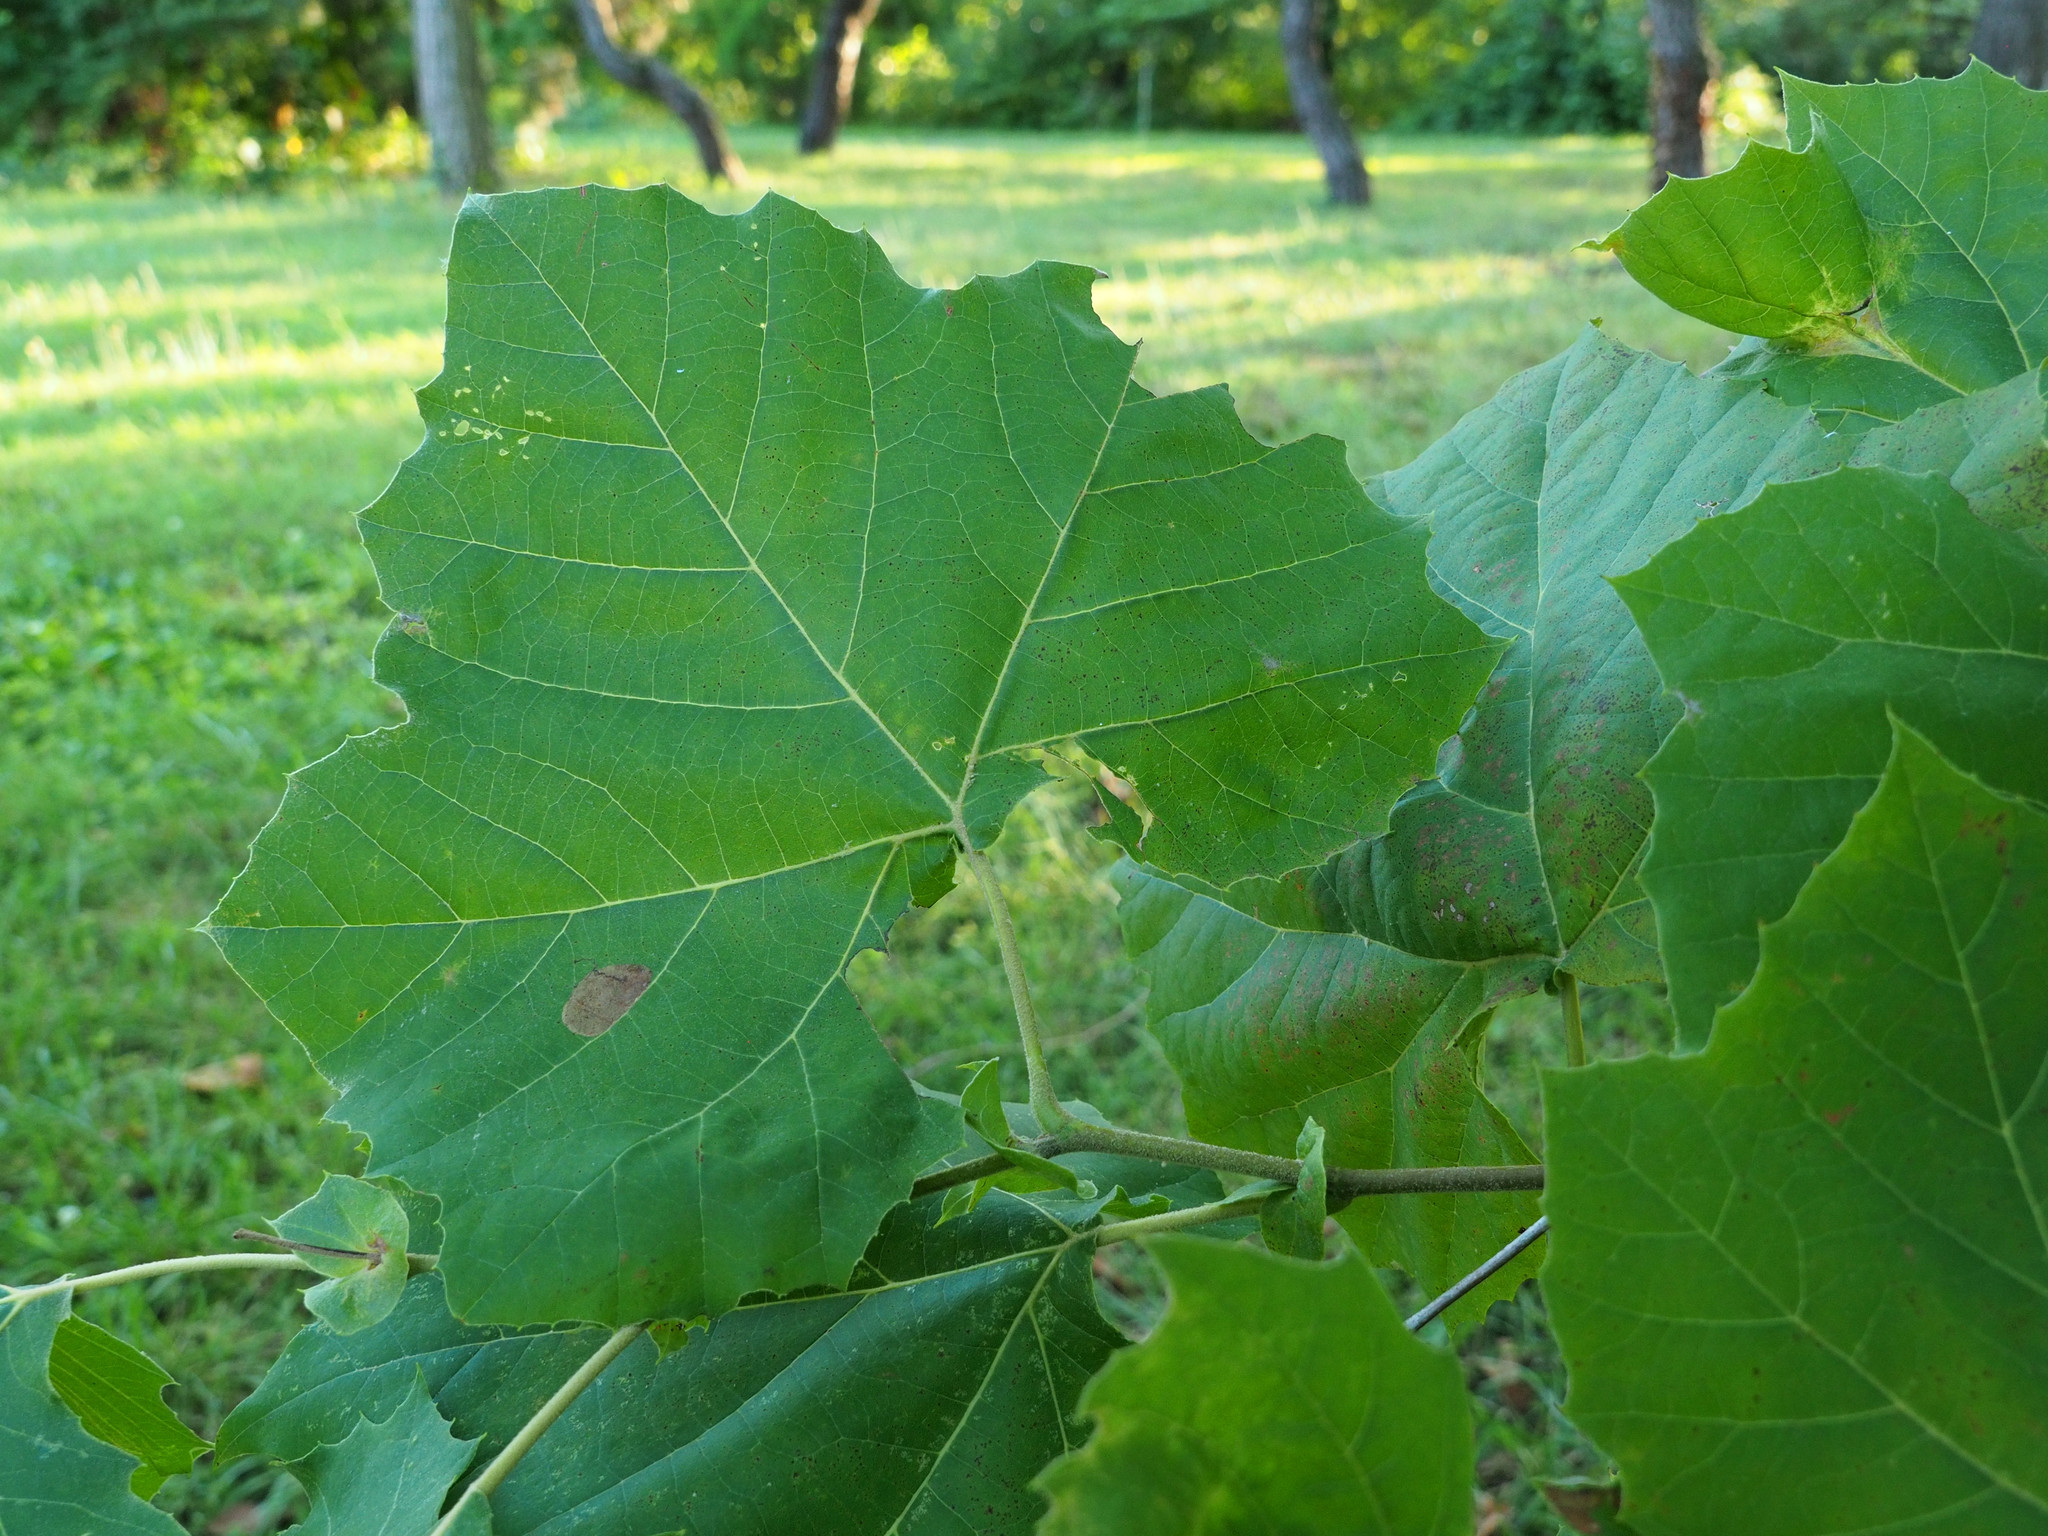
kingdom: Animalia
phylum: Arthropoda
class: Insecta
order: Lepidoptera
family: Nepticulidae
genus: Ectoedemia
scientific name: Ectoedemia platanella
